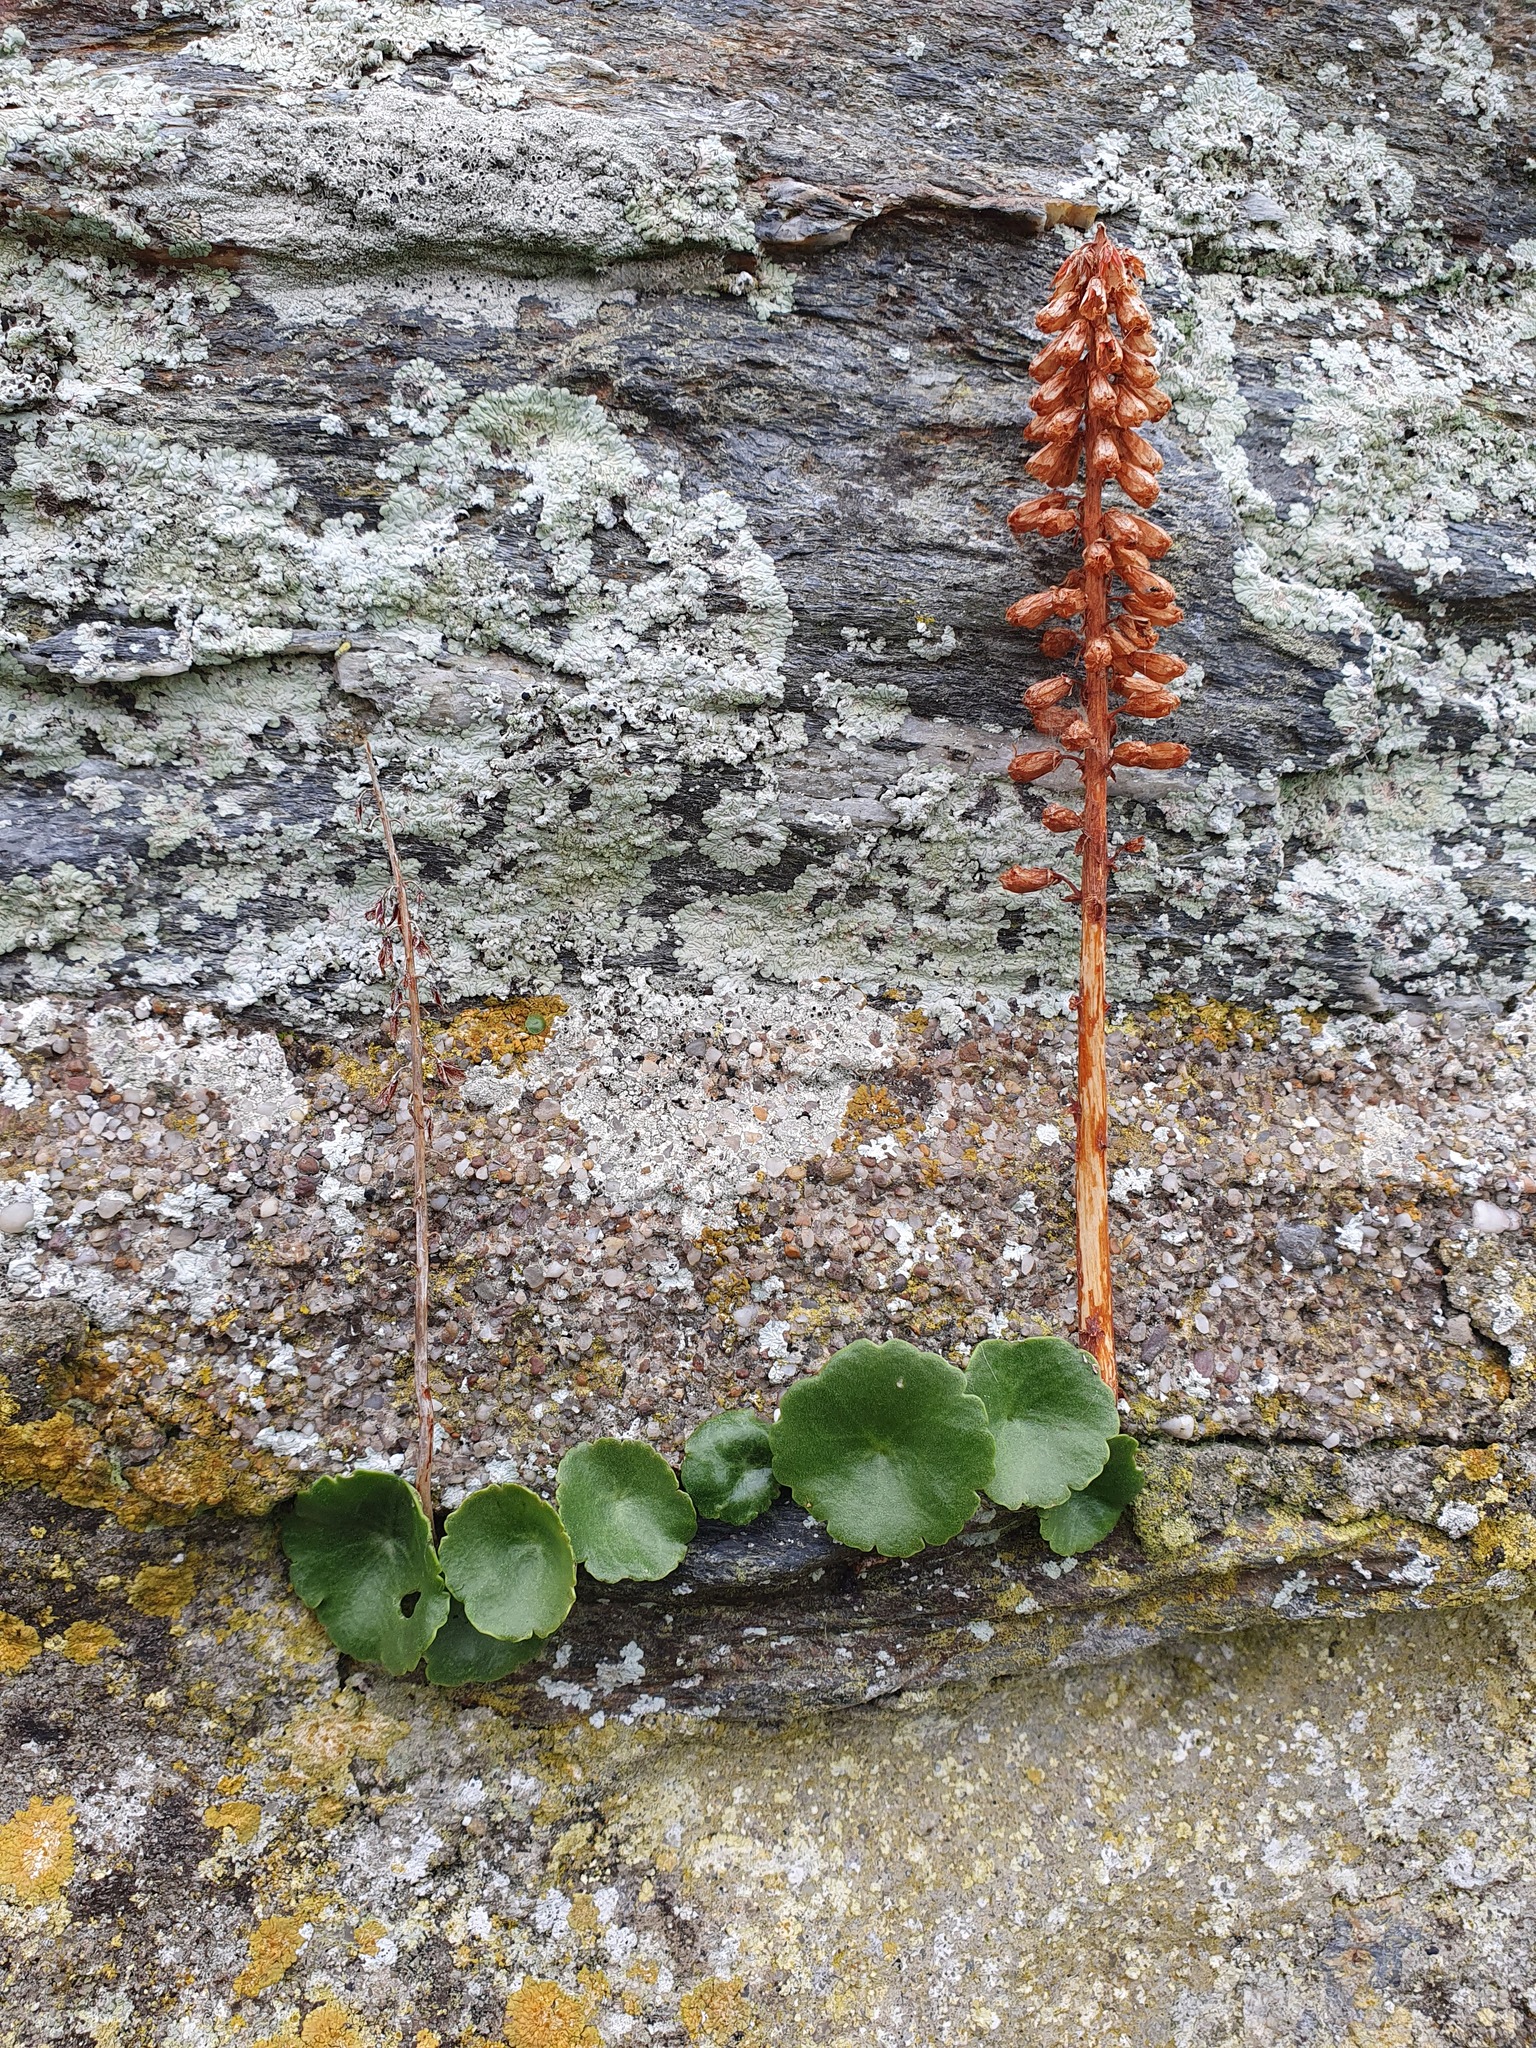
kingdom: Plantae
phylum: Tracheophyta
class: Magnoliopsida
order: Saxifragales
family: Crassulaceae
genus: Umbilicus
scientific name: Umbilicus rupestris
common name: Navelwort
